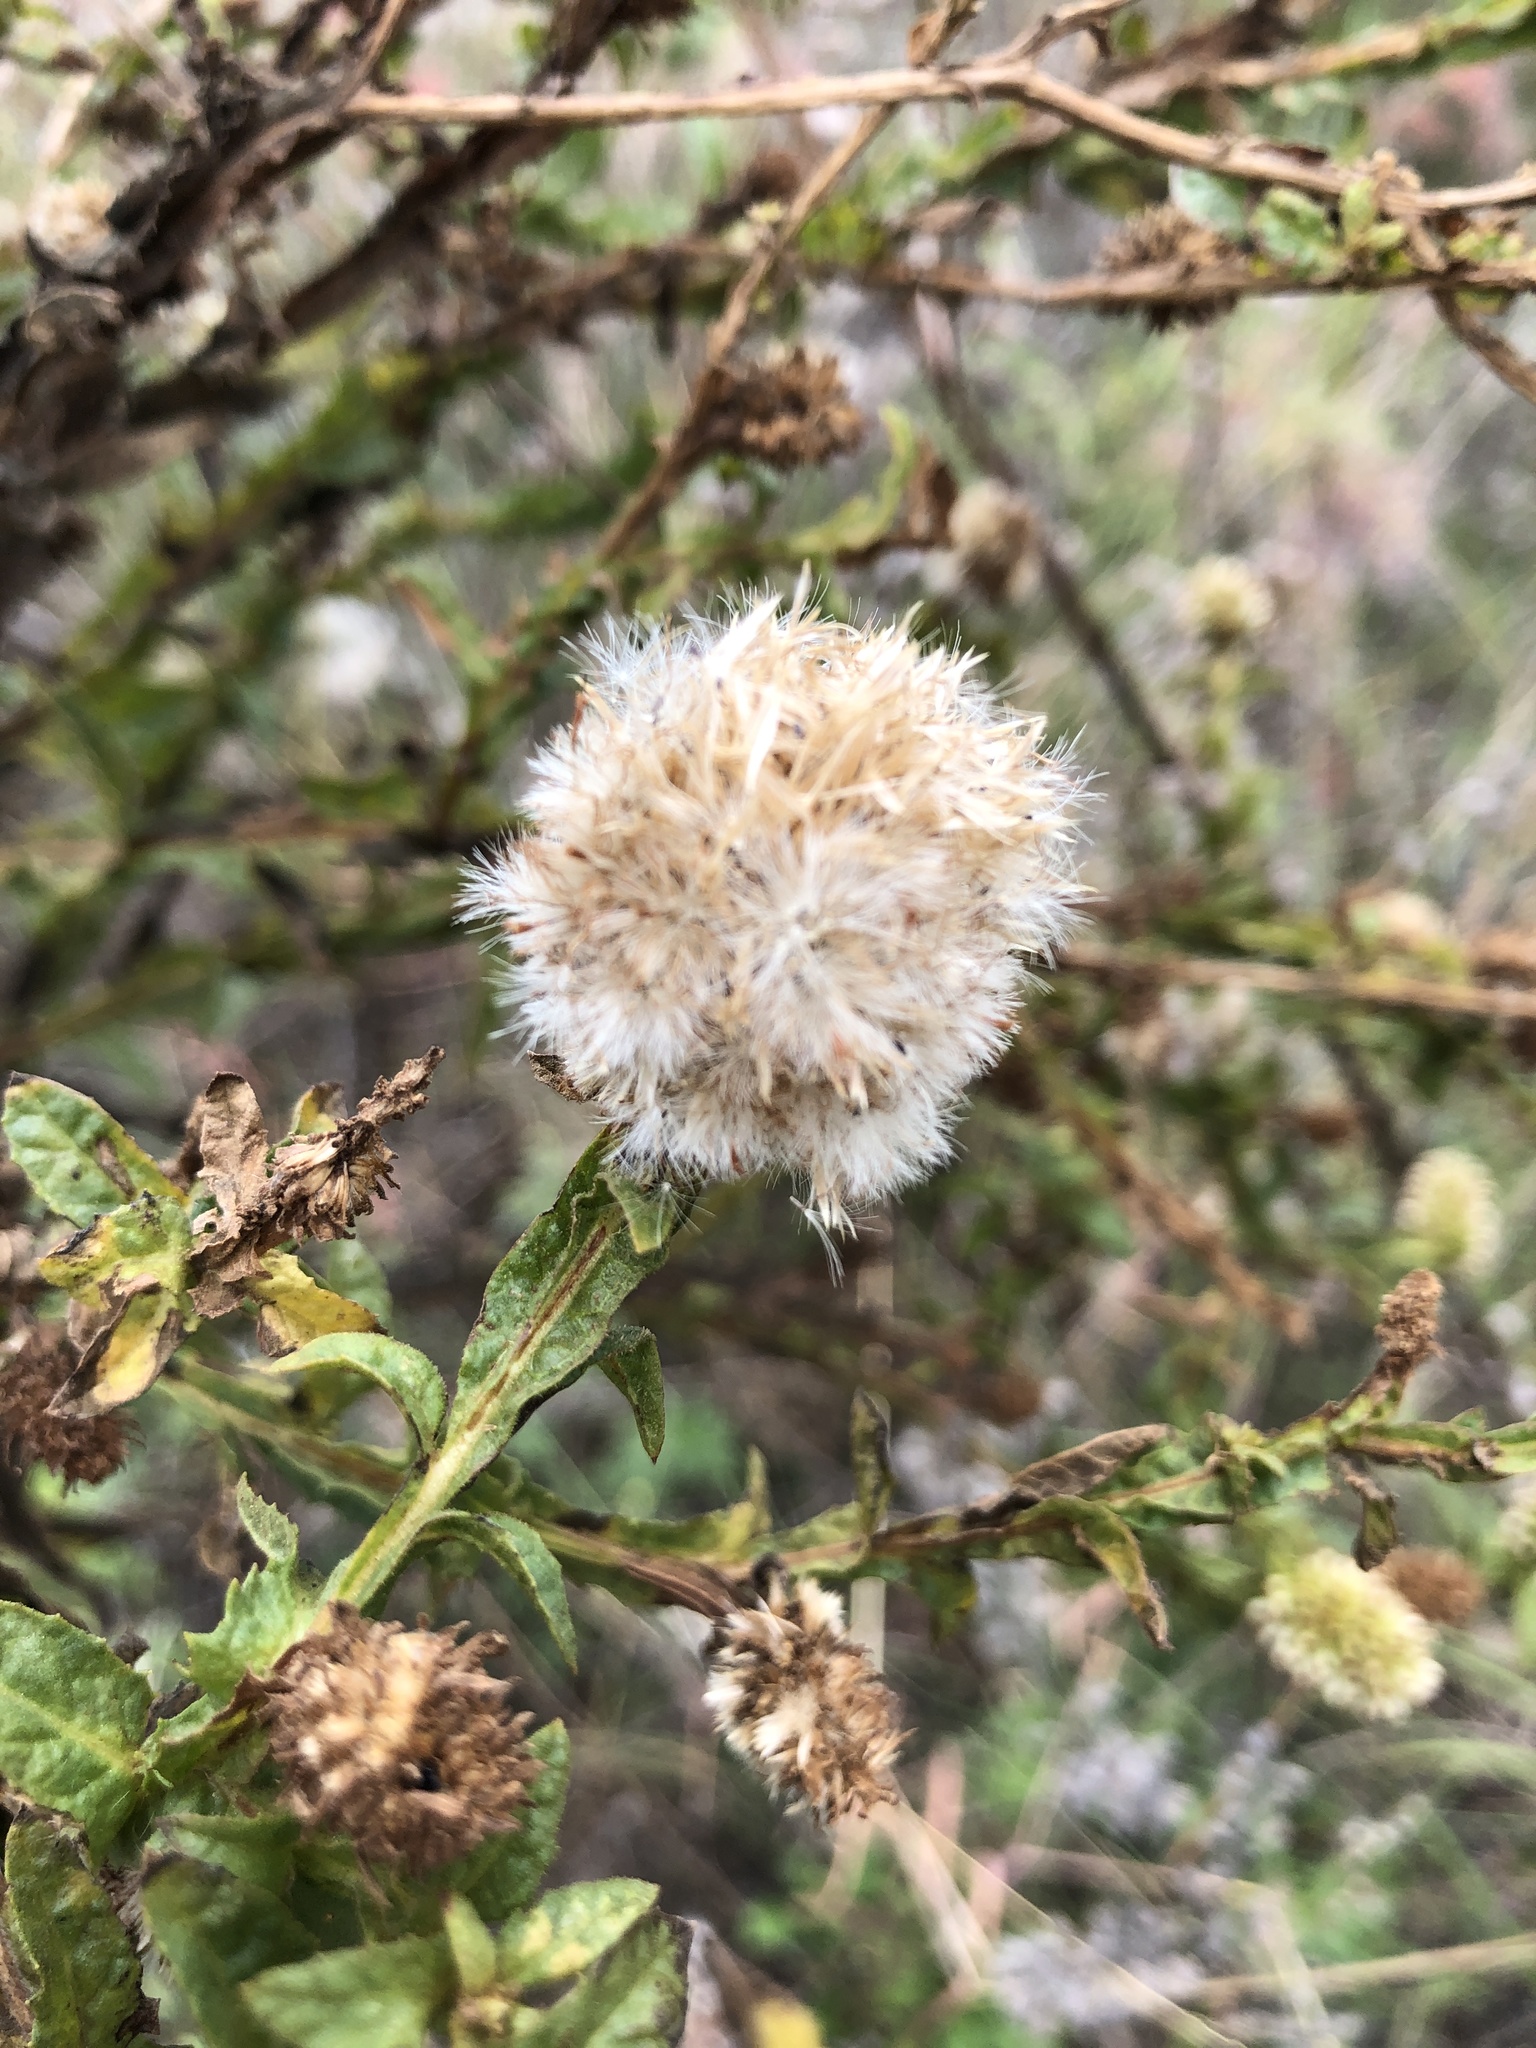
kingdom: Plantae
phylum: Tracheophyta
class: Magnoliopsida
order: Asterales
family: Asteraceae
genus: Pterocaulon
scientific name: Pterocaulon serrulatum
